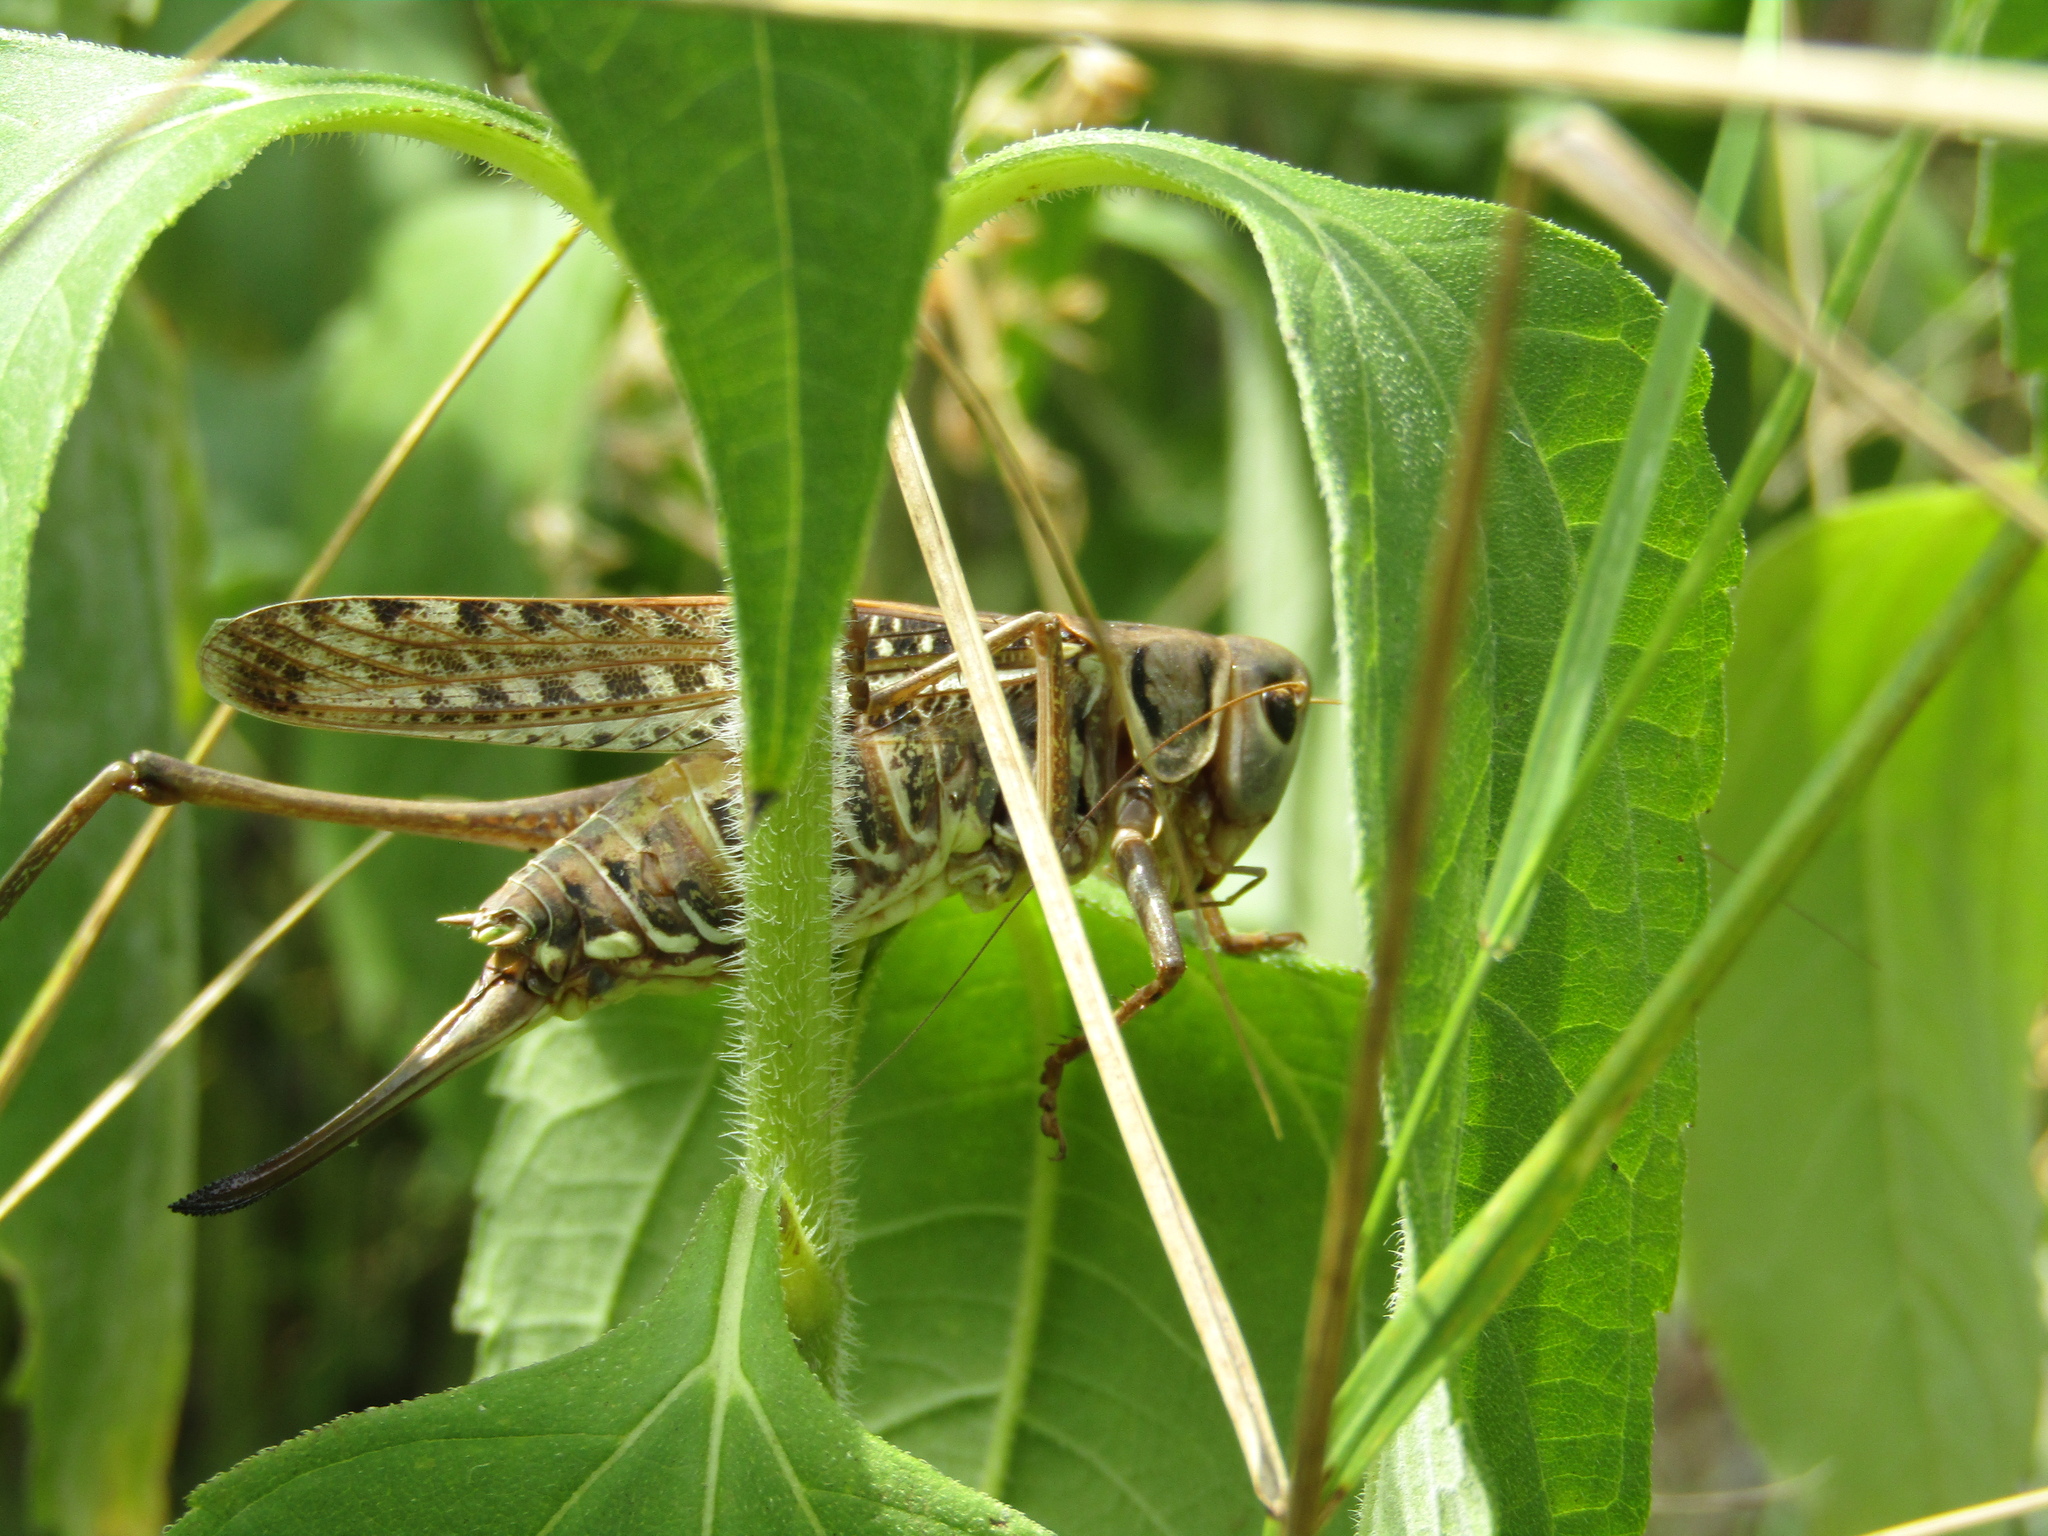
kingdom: Animalia
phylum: Arthropoda
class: Insecta
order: Orthoptera
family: Tettigoniidae
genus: Decticus
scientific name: Decticus albifrons
